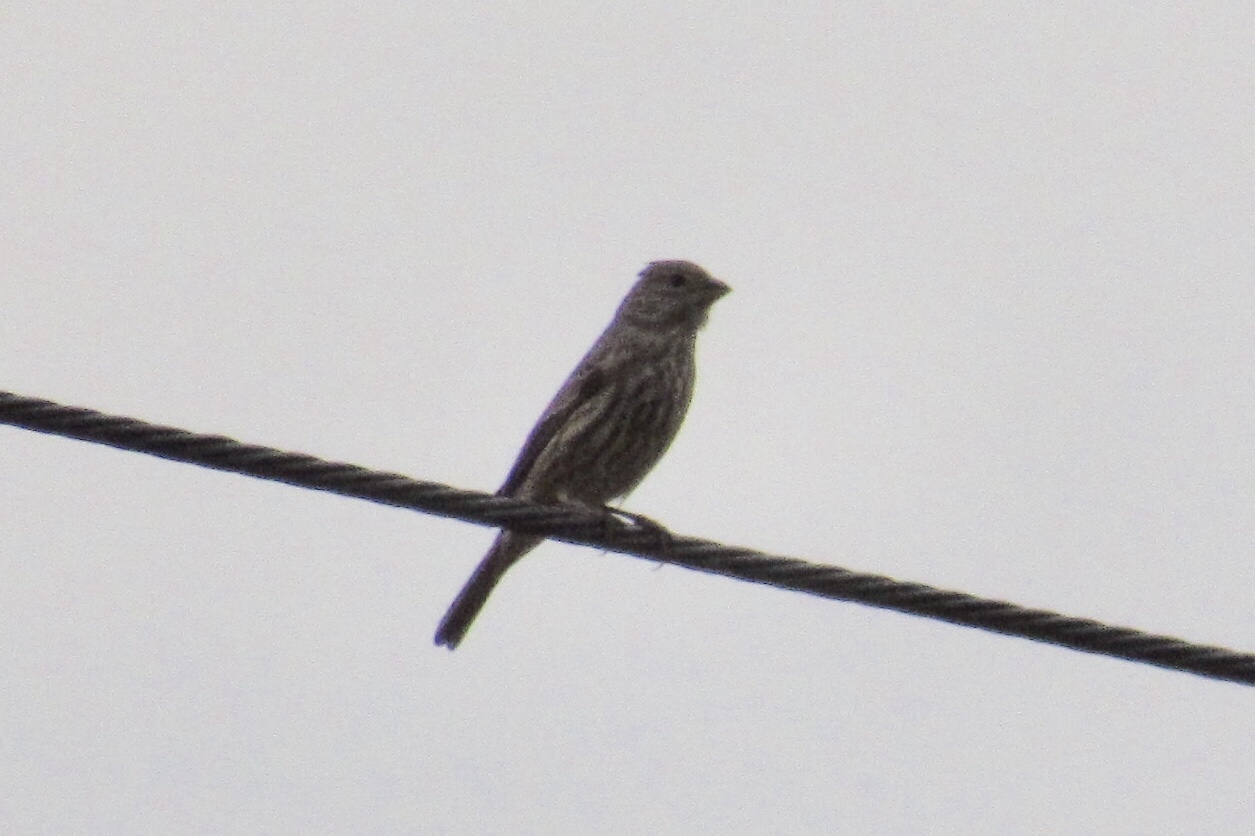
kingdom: Animalia
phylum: Chordata
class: Aves
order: Passeriformes
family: Fringillidae
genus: Haemorhous
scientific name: Haemorhous mexicanus
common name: House finch
